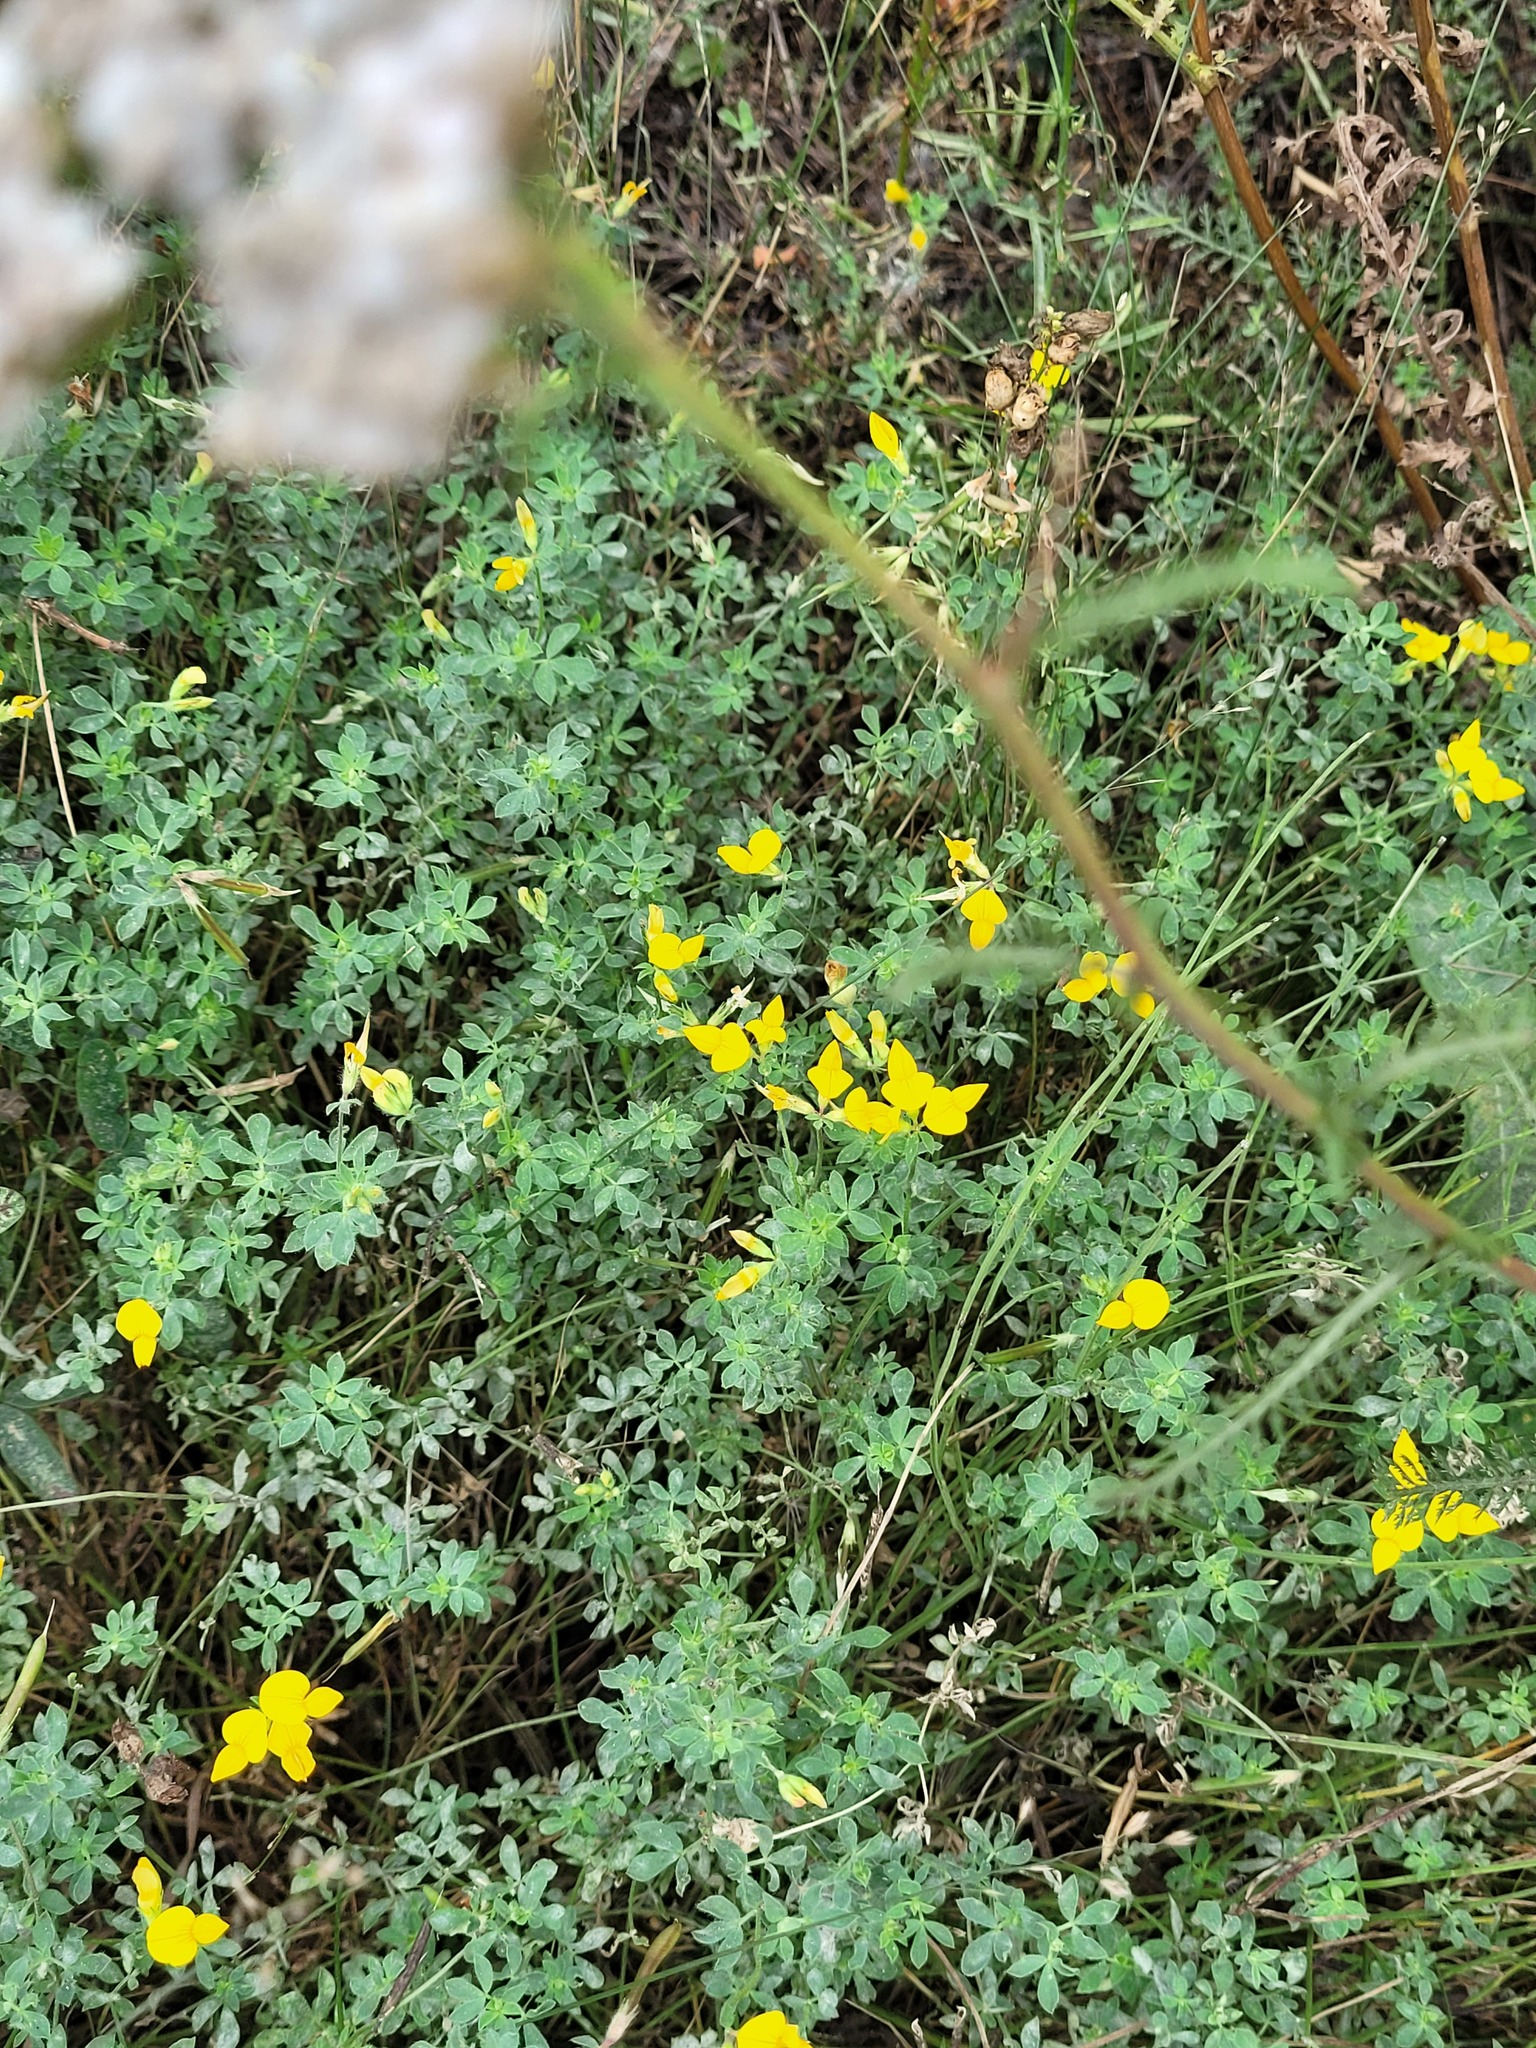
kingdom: Plantae
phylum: Tracheophyta
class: Magnoliopsida
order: Fabales
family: Fabaceae
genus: Lotus
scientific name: Lotus corniculatus
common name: Common bird's-foot-trefoil
